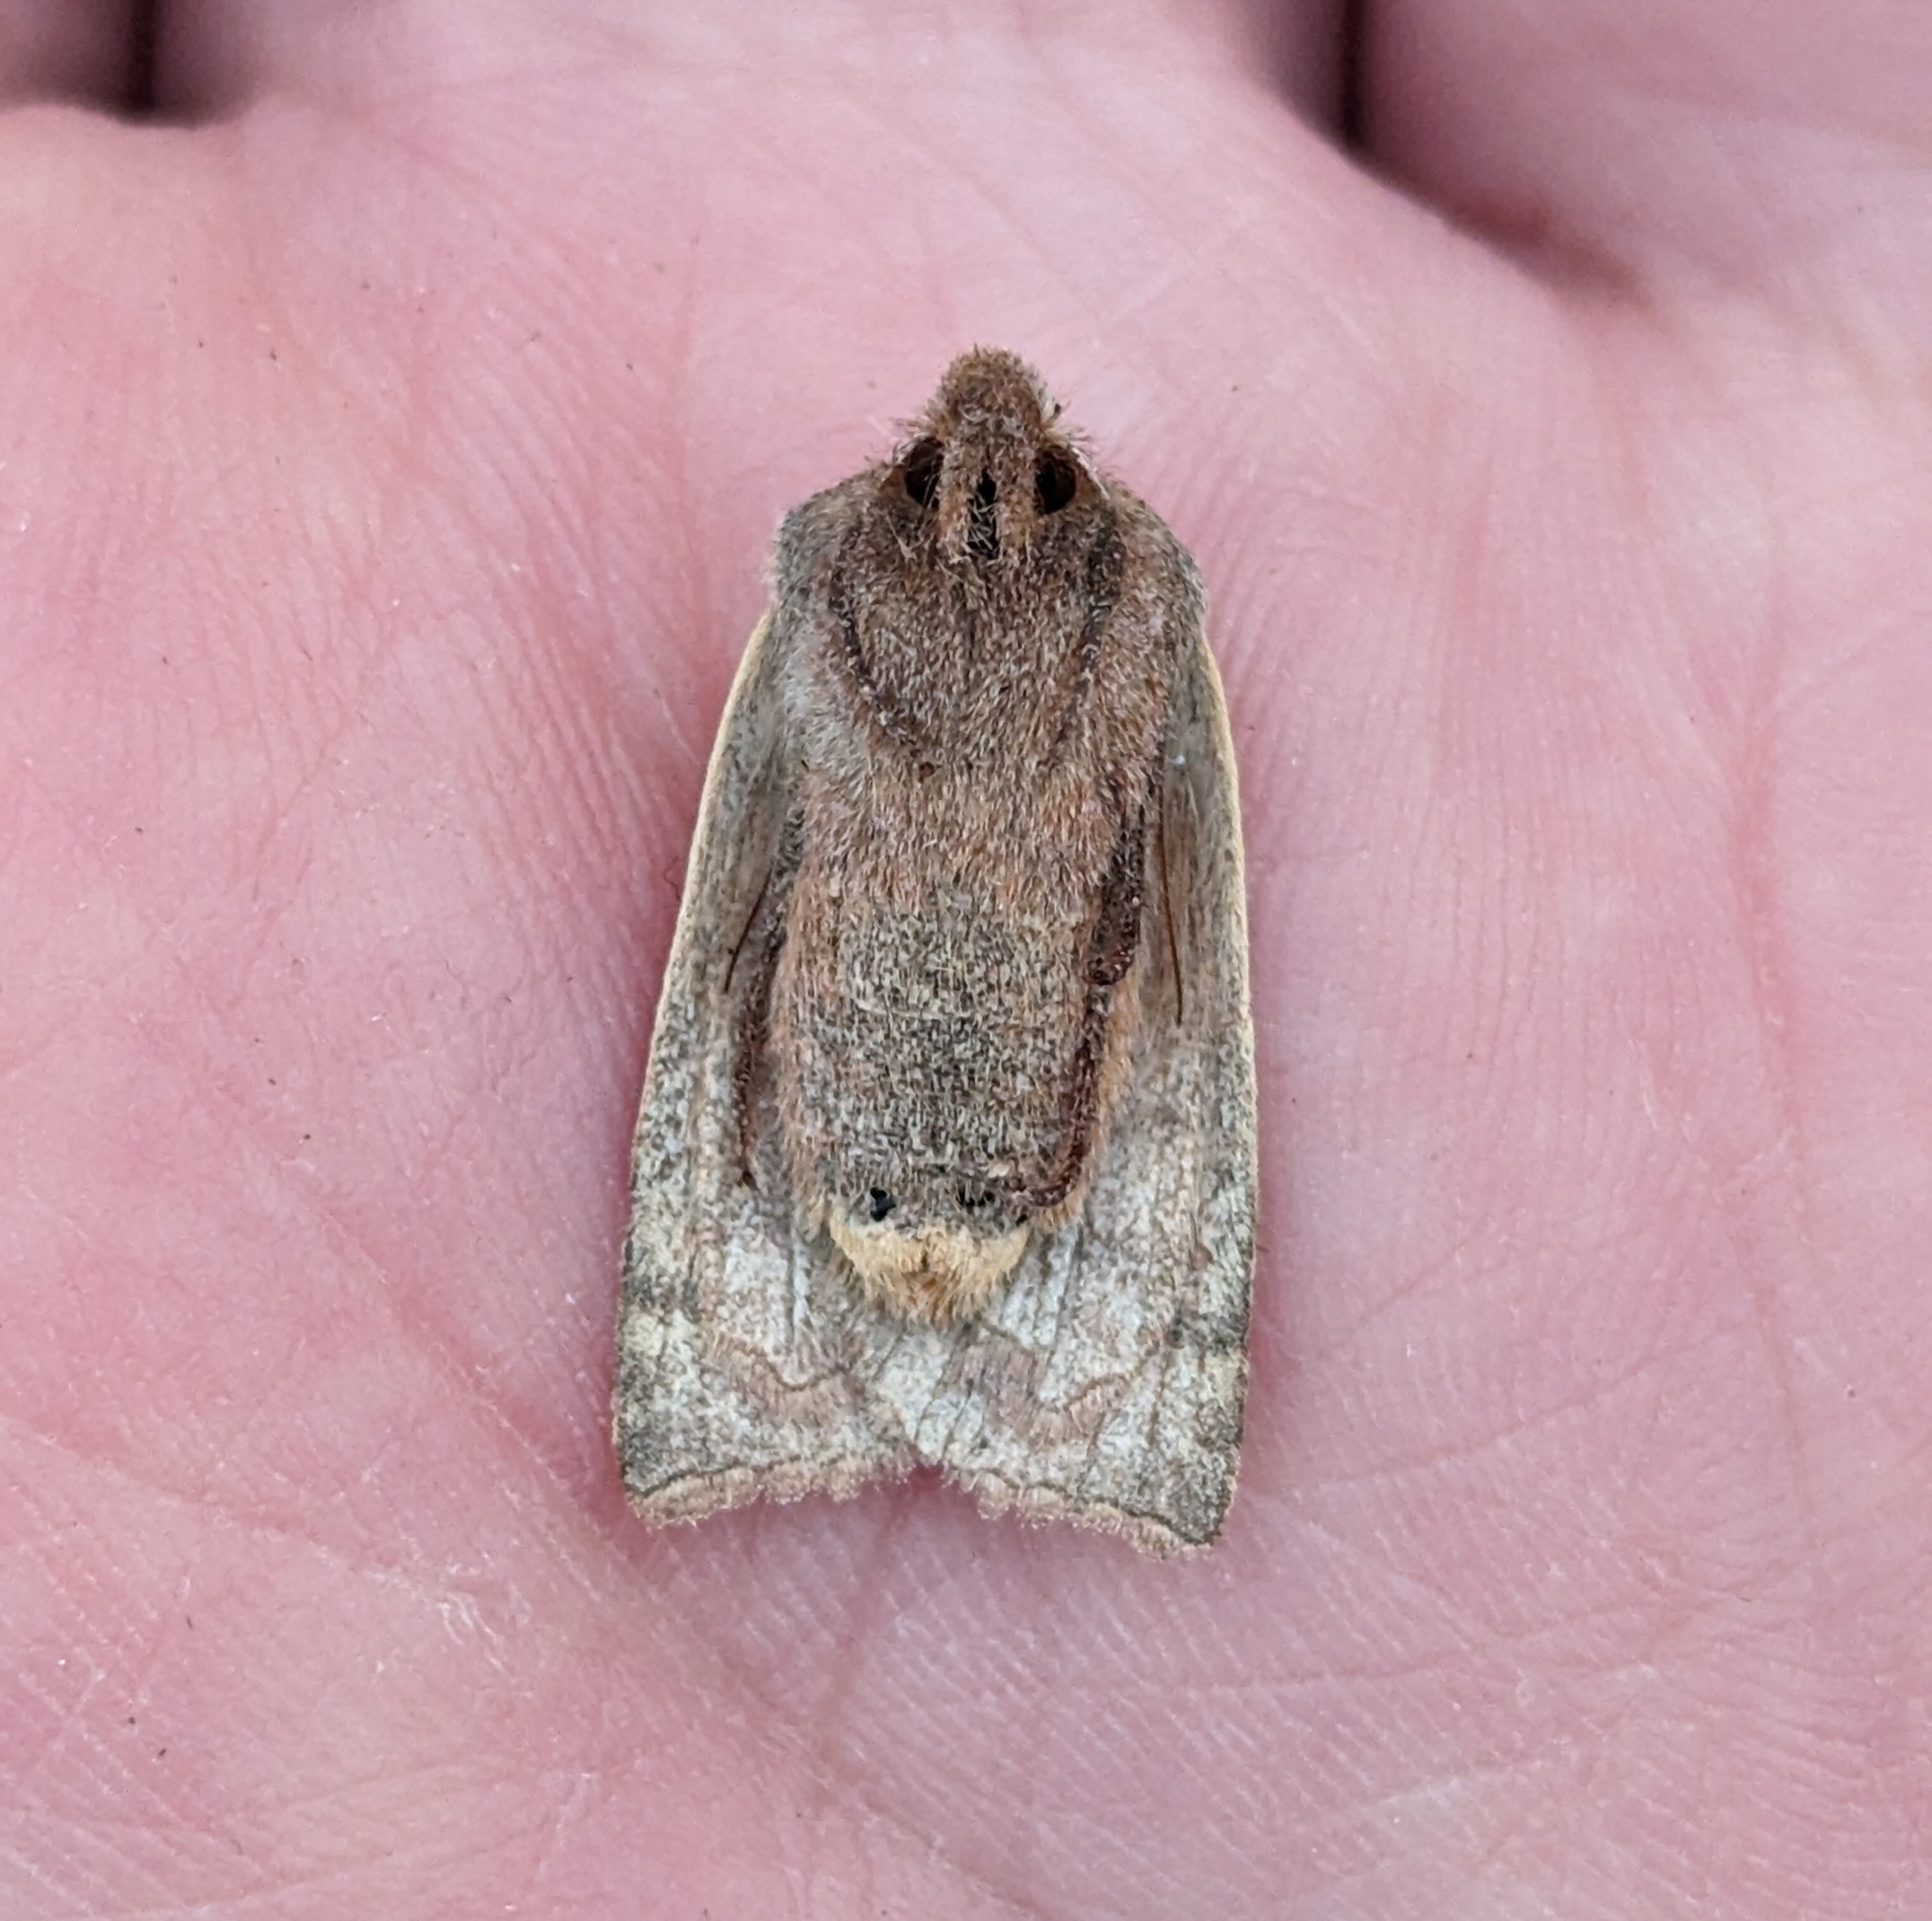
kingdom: Animalia
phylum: Arthropoda
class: Insecta
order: Lepidoptera
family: Noctuidae
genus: Eupsilia
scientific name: Eupsilia devia
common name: Lost sallow
